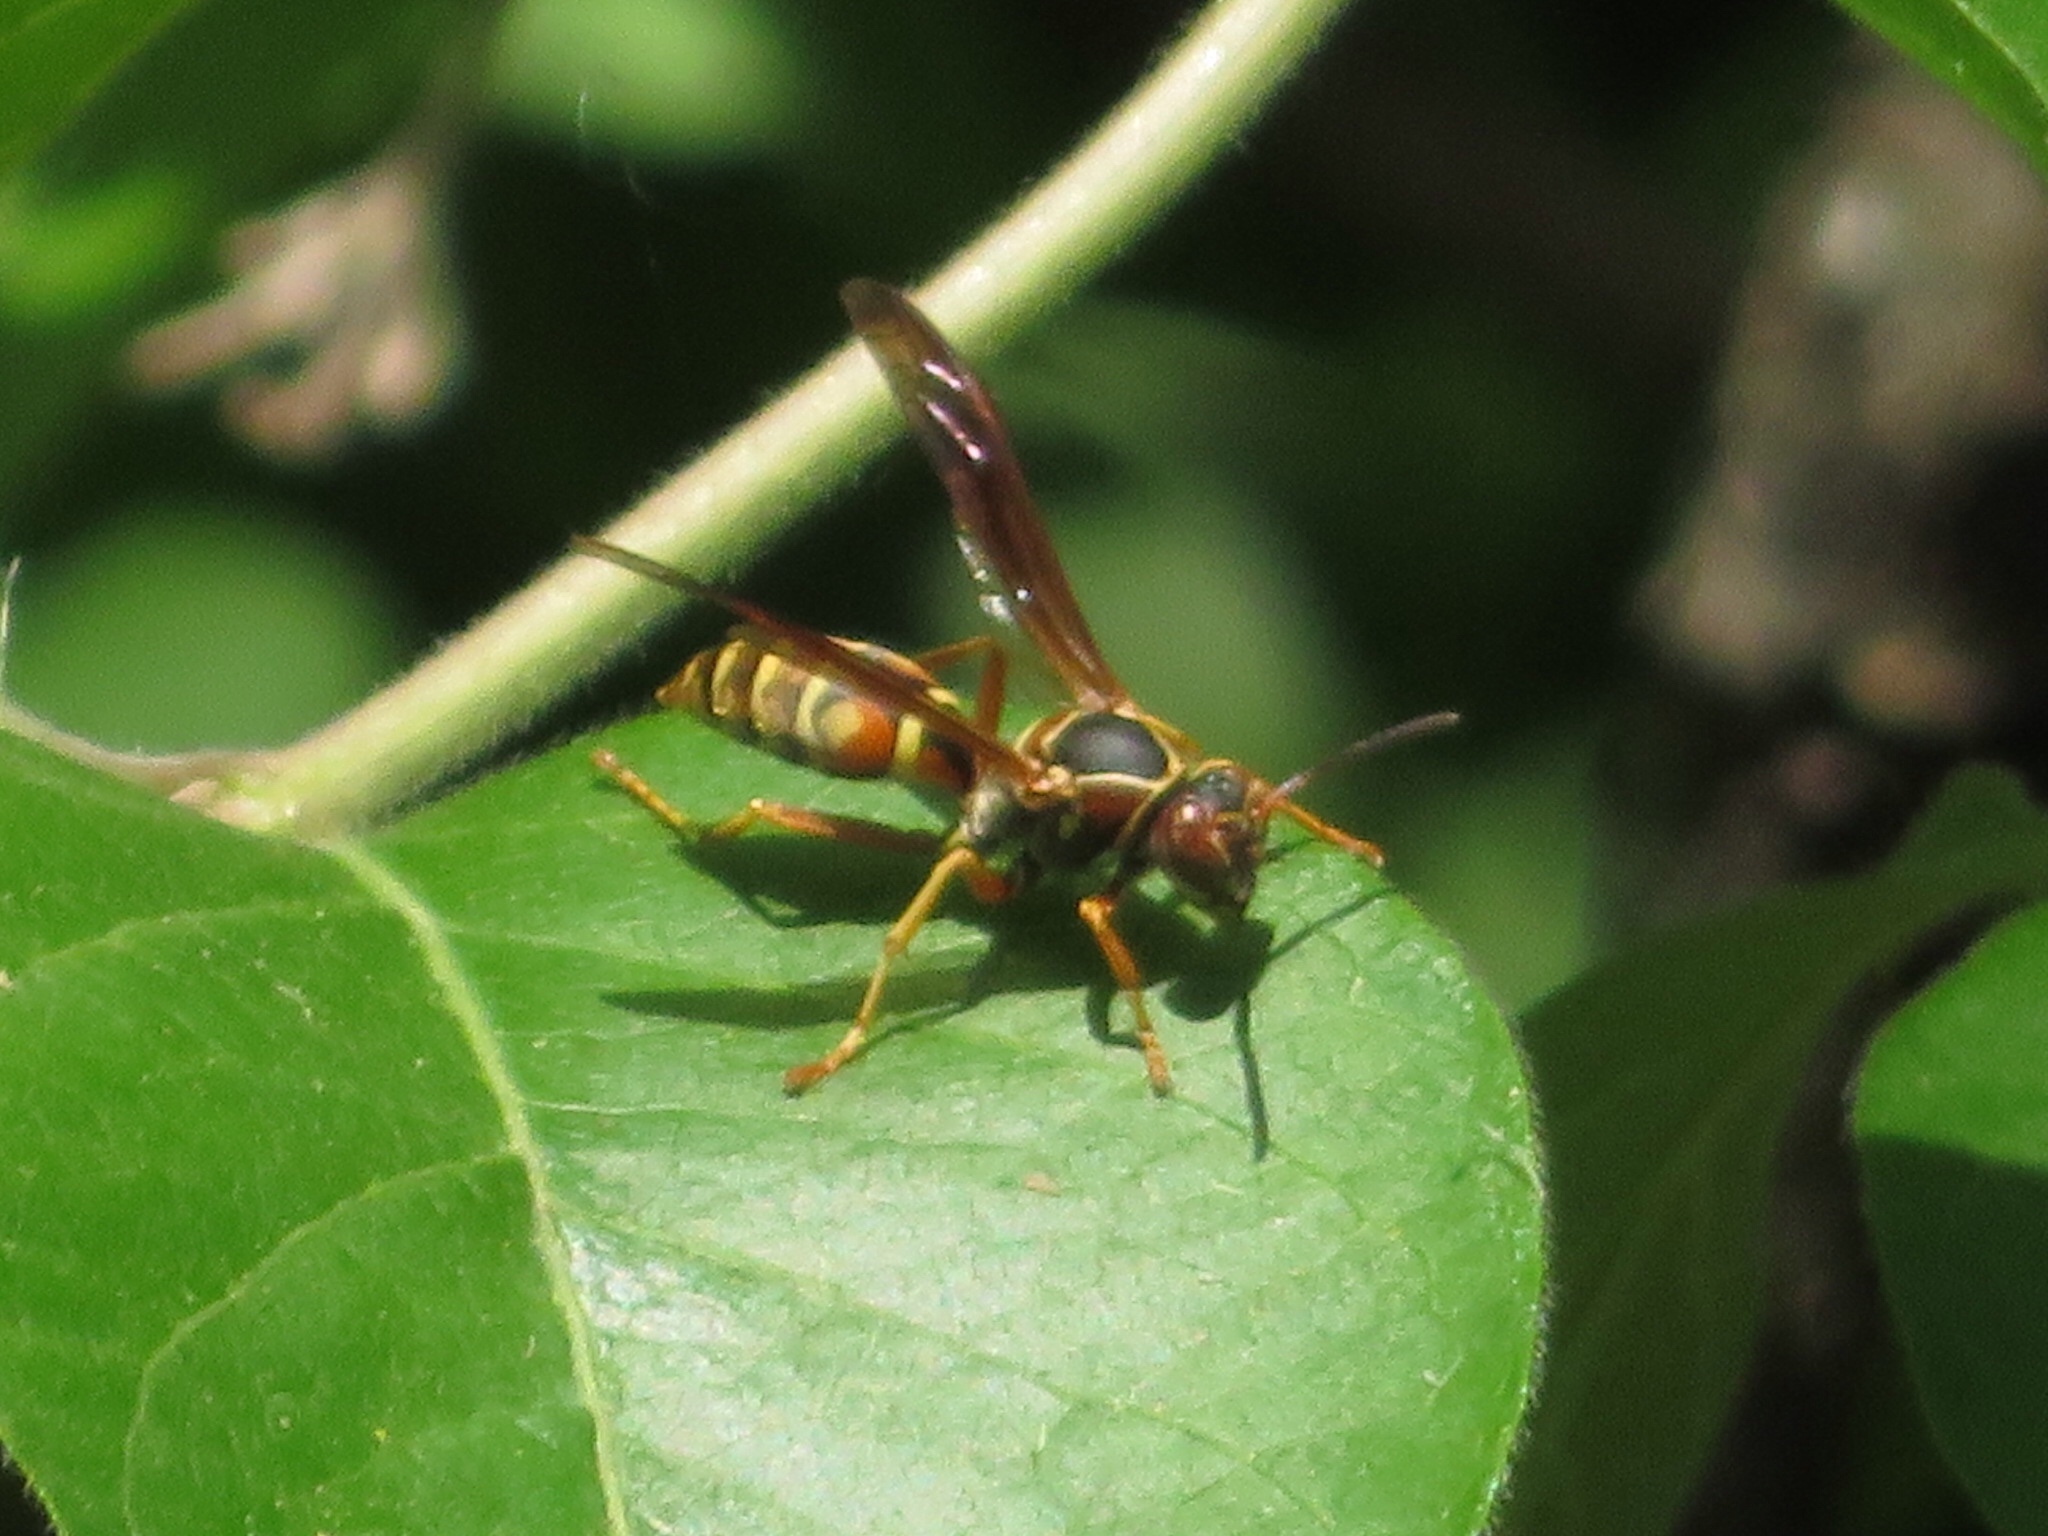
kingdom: Animalia
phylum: Arthropoda
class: Insecta
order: Hymenoptera
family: Eumenidae
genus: Polistes
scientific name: Polistes fuscatus
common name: Dark paper wasp
